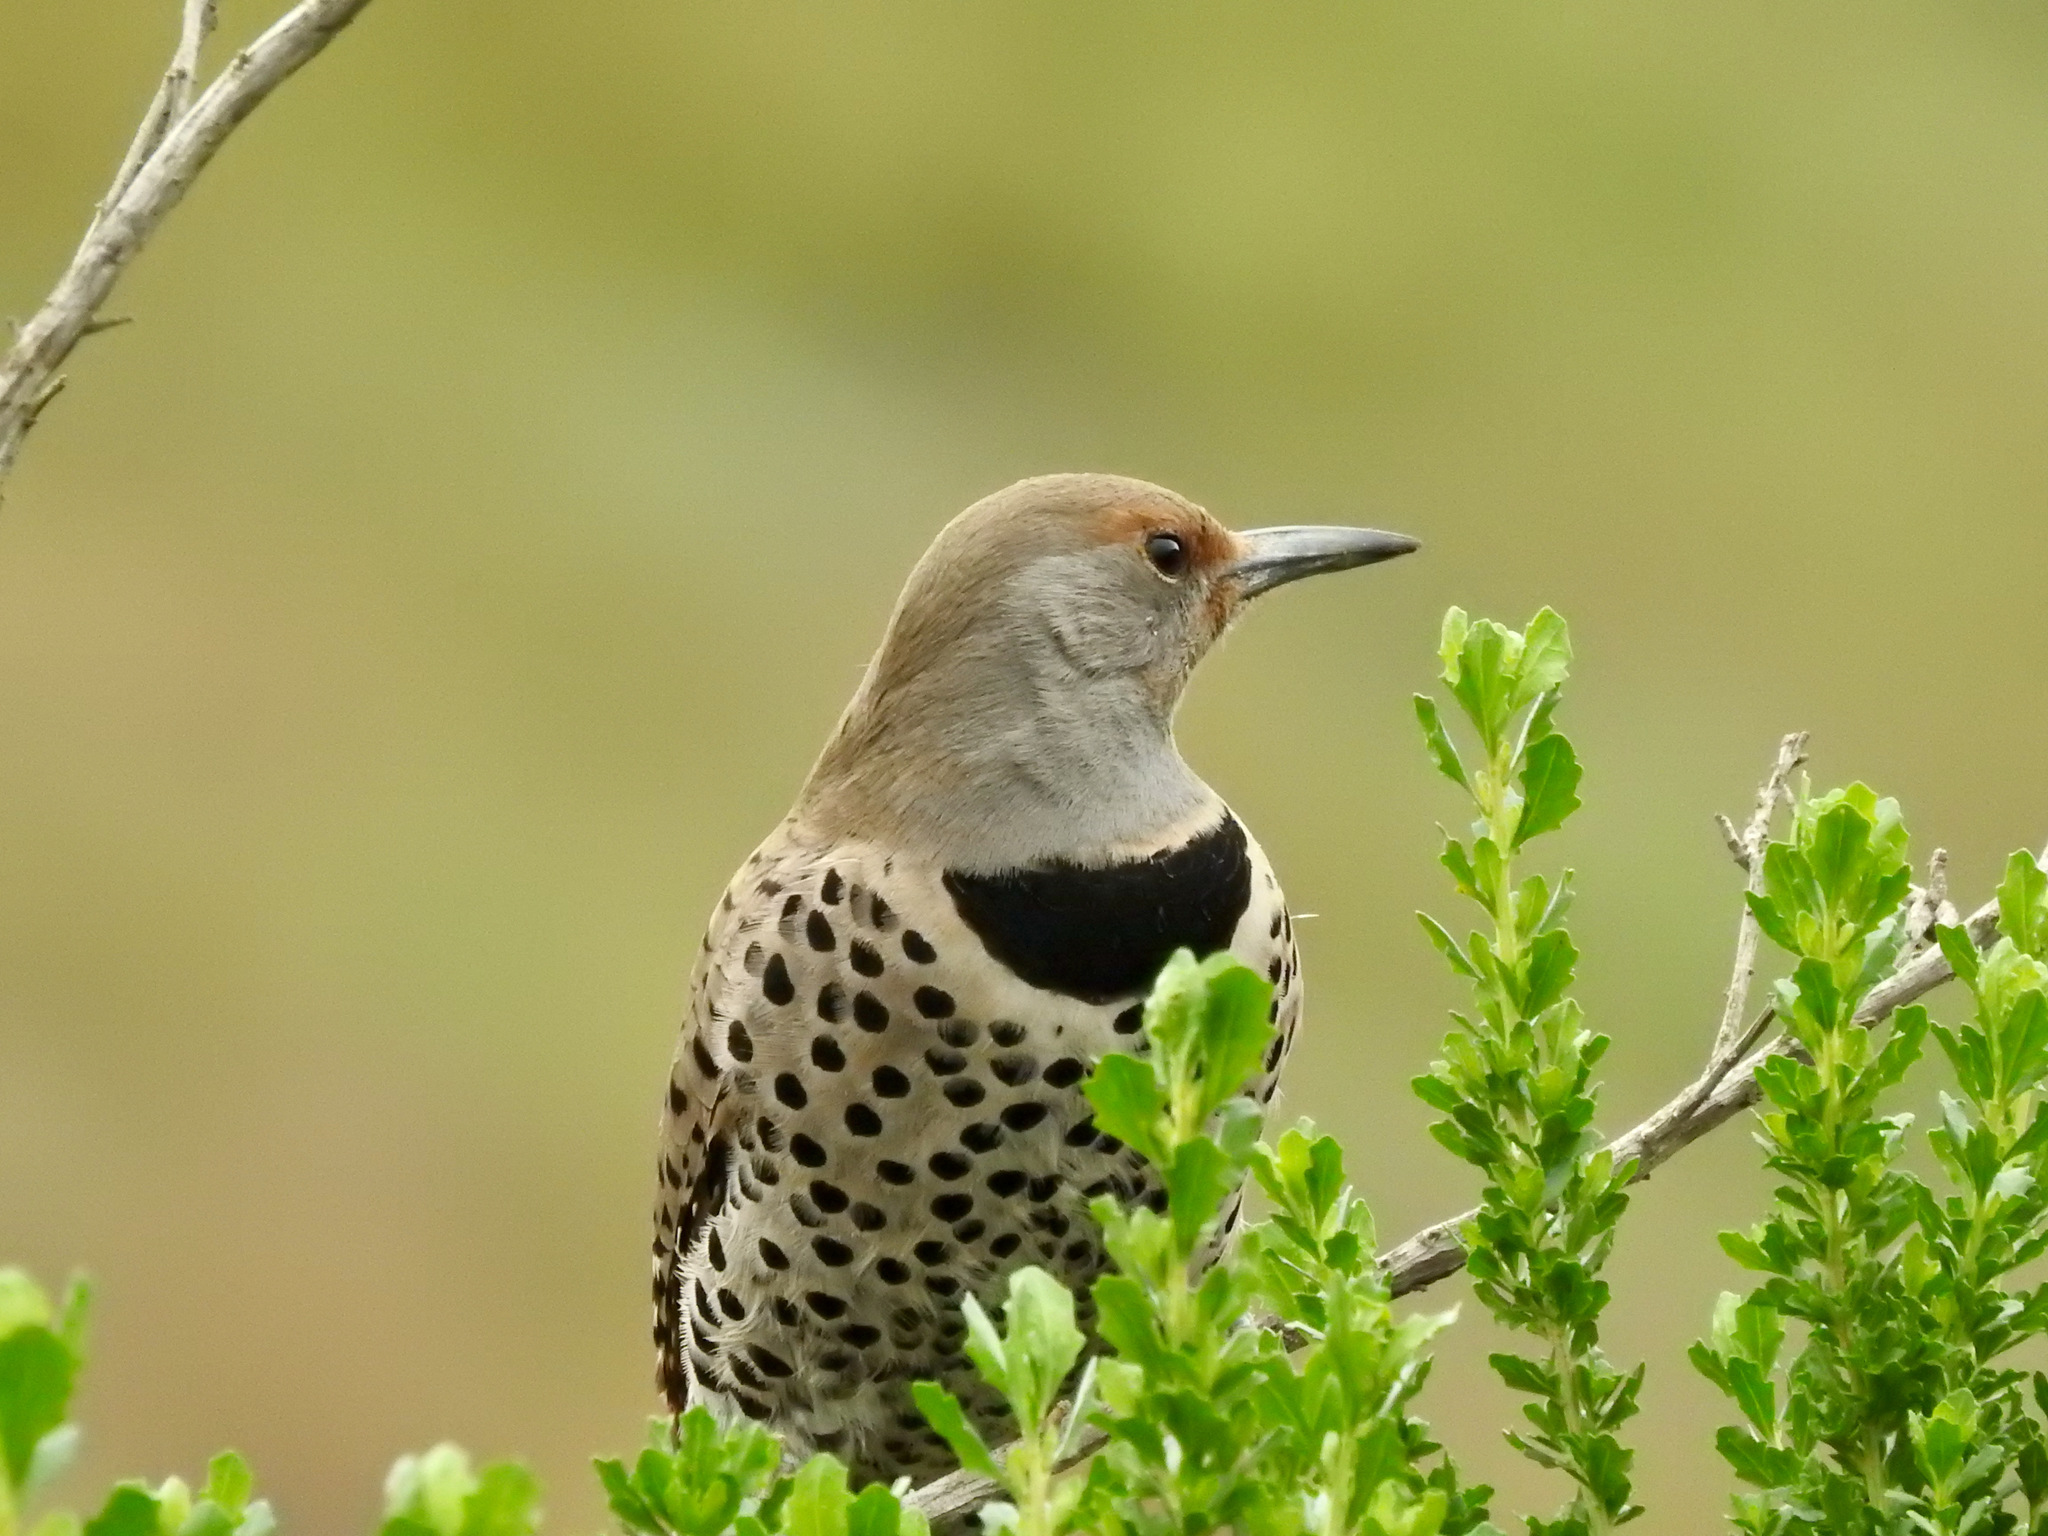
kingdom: Animalia
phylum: Chordata
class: Aves
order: Piciformes
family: Picidae
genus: Colaptes
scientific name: Colaptes auratus
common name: Northern flicker
